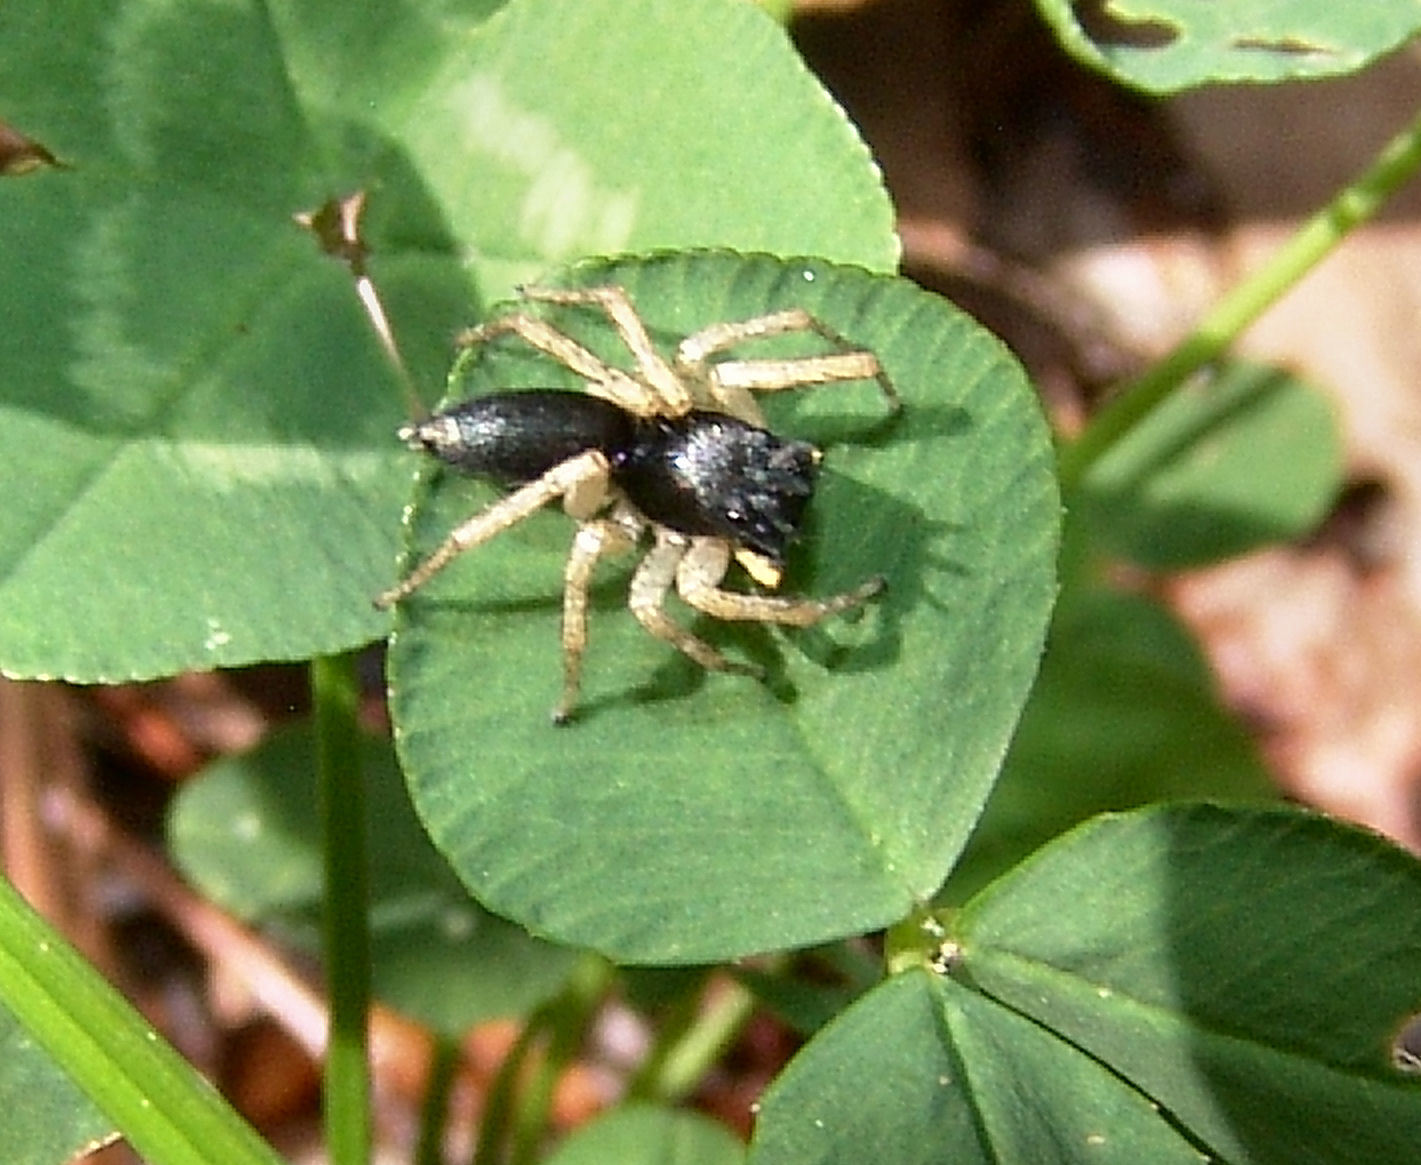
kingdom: Animalia
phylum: Arthropoda
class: Arachnida
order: Araneae
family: Salticidae
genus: Maevia
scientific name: Maevia inclemens
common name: Dimorphic jumper
